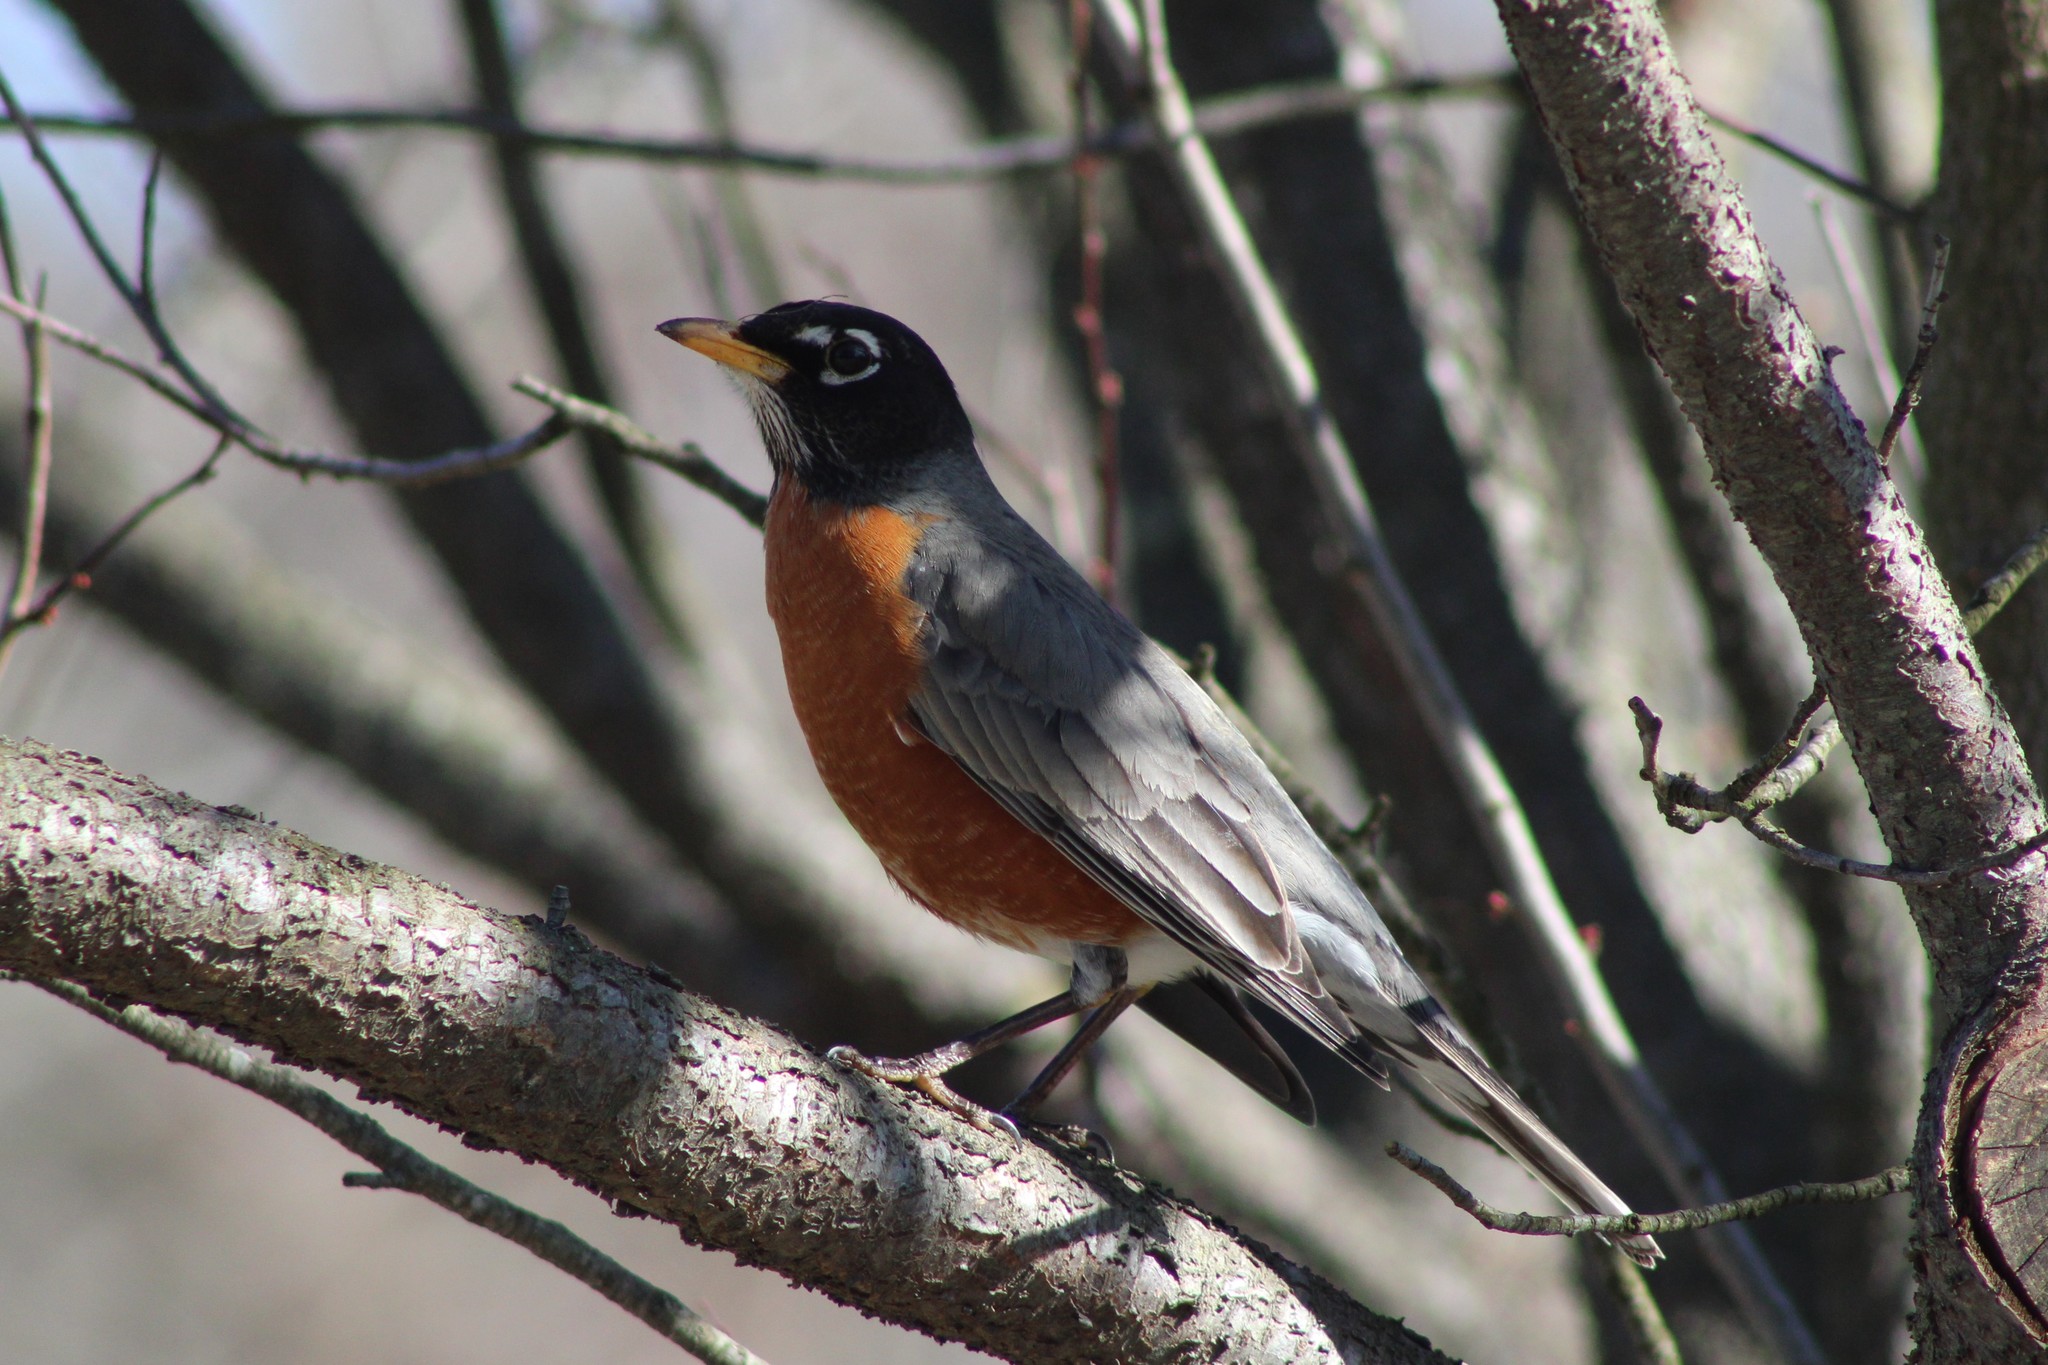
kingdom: Animalia
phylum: Chordata
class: Aves
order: Passeriformes
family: Turdidae
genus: Turdus
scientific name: Turdus migratorius
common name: American robin
